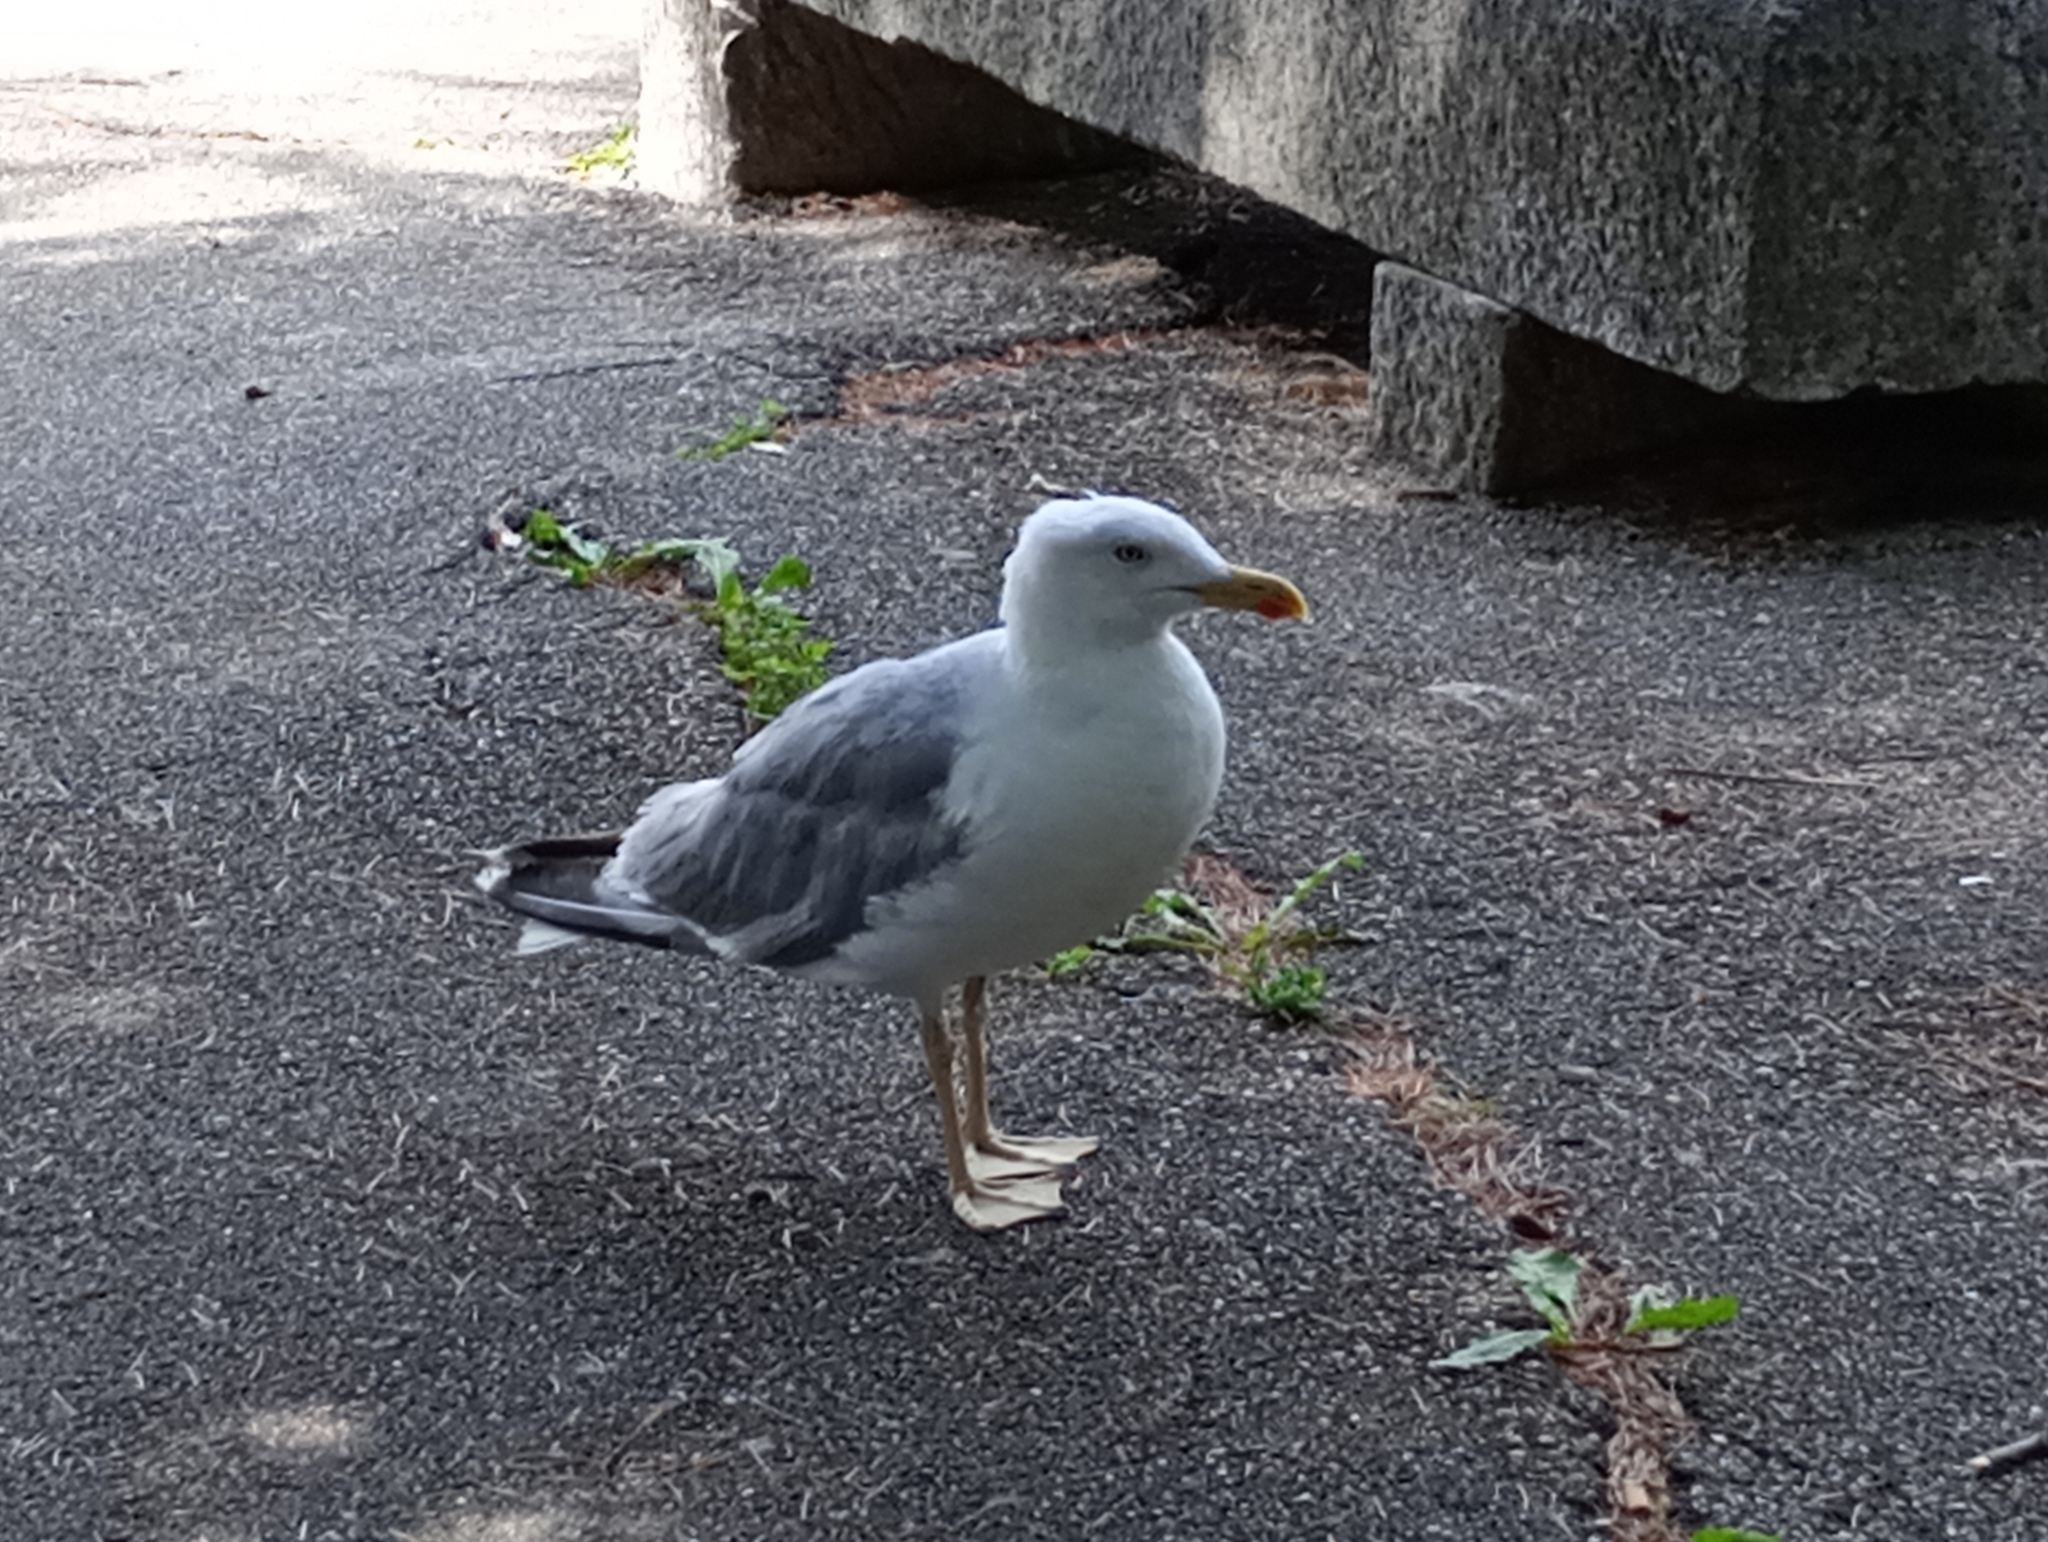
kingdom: Animalia
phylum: Chordata
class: Aves
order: Charadriiformes
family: Laridae
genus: Larus
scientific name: Larus michahellis
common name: Yellow-legged gull
